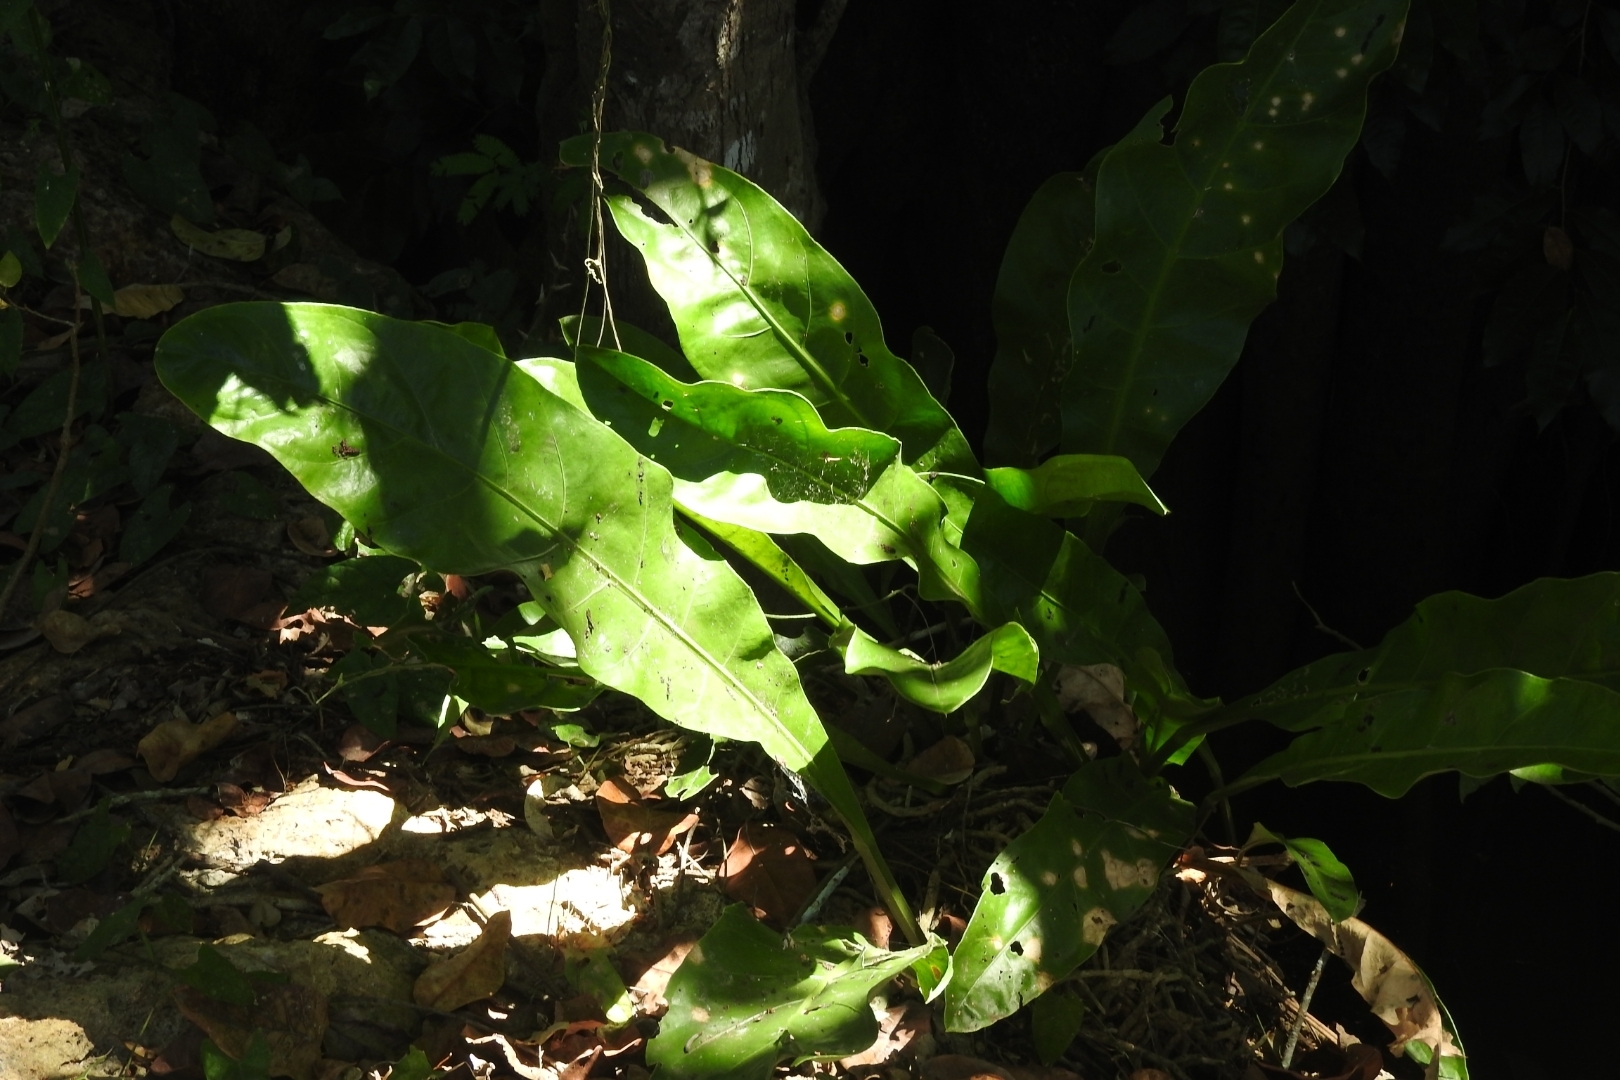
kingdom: Plantae
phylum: Tracheophyta
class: Liliopsida
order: Alismatales
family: Araceae
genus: Anthurium
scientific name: Anthurium schlechtendalii
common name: Laceleaf
